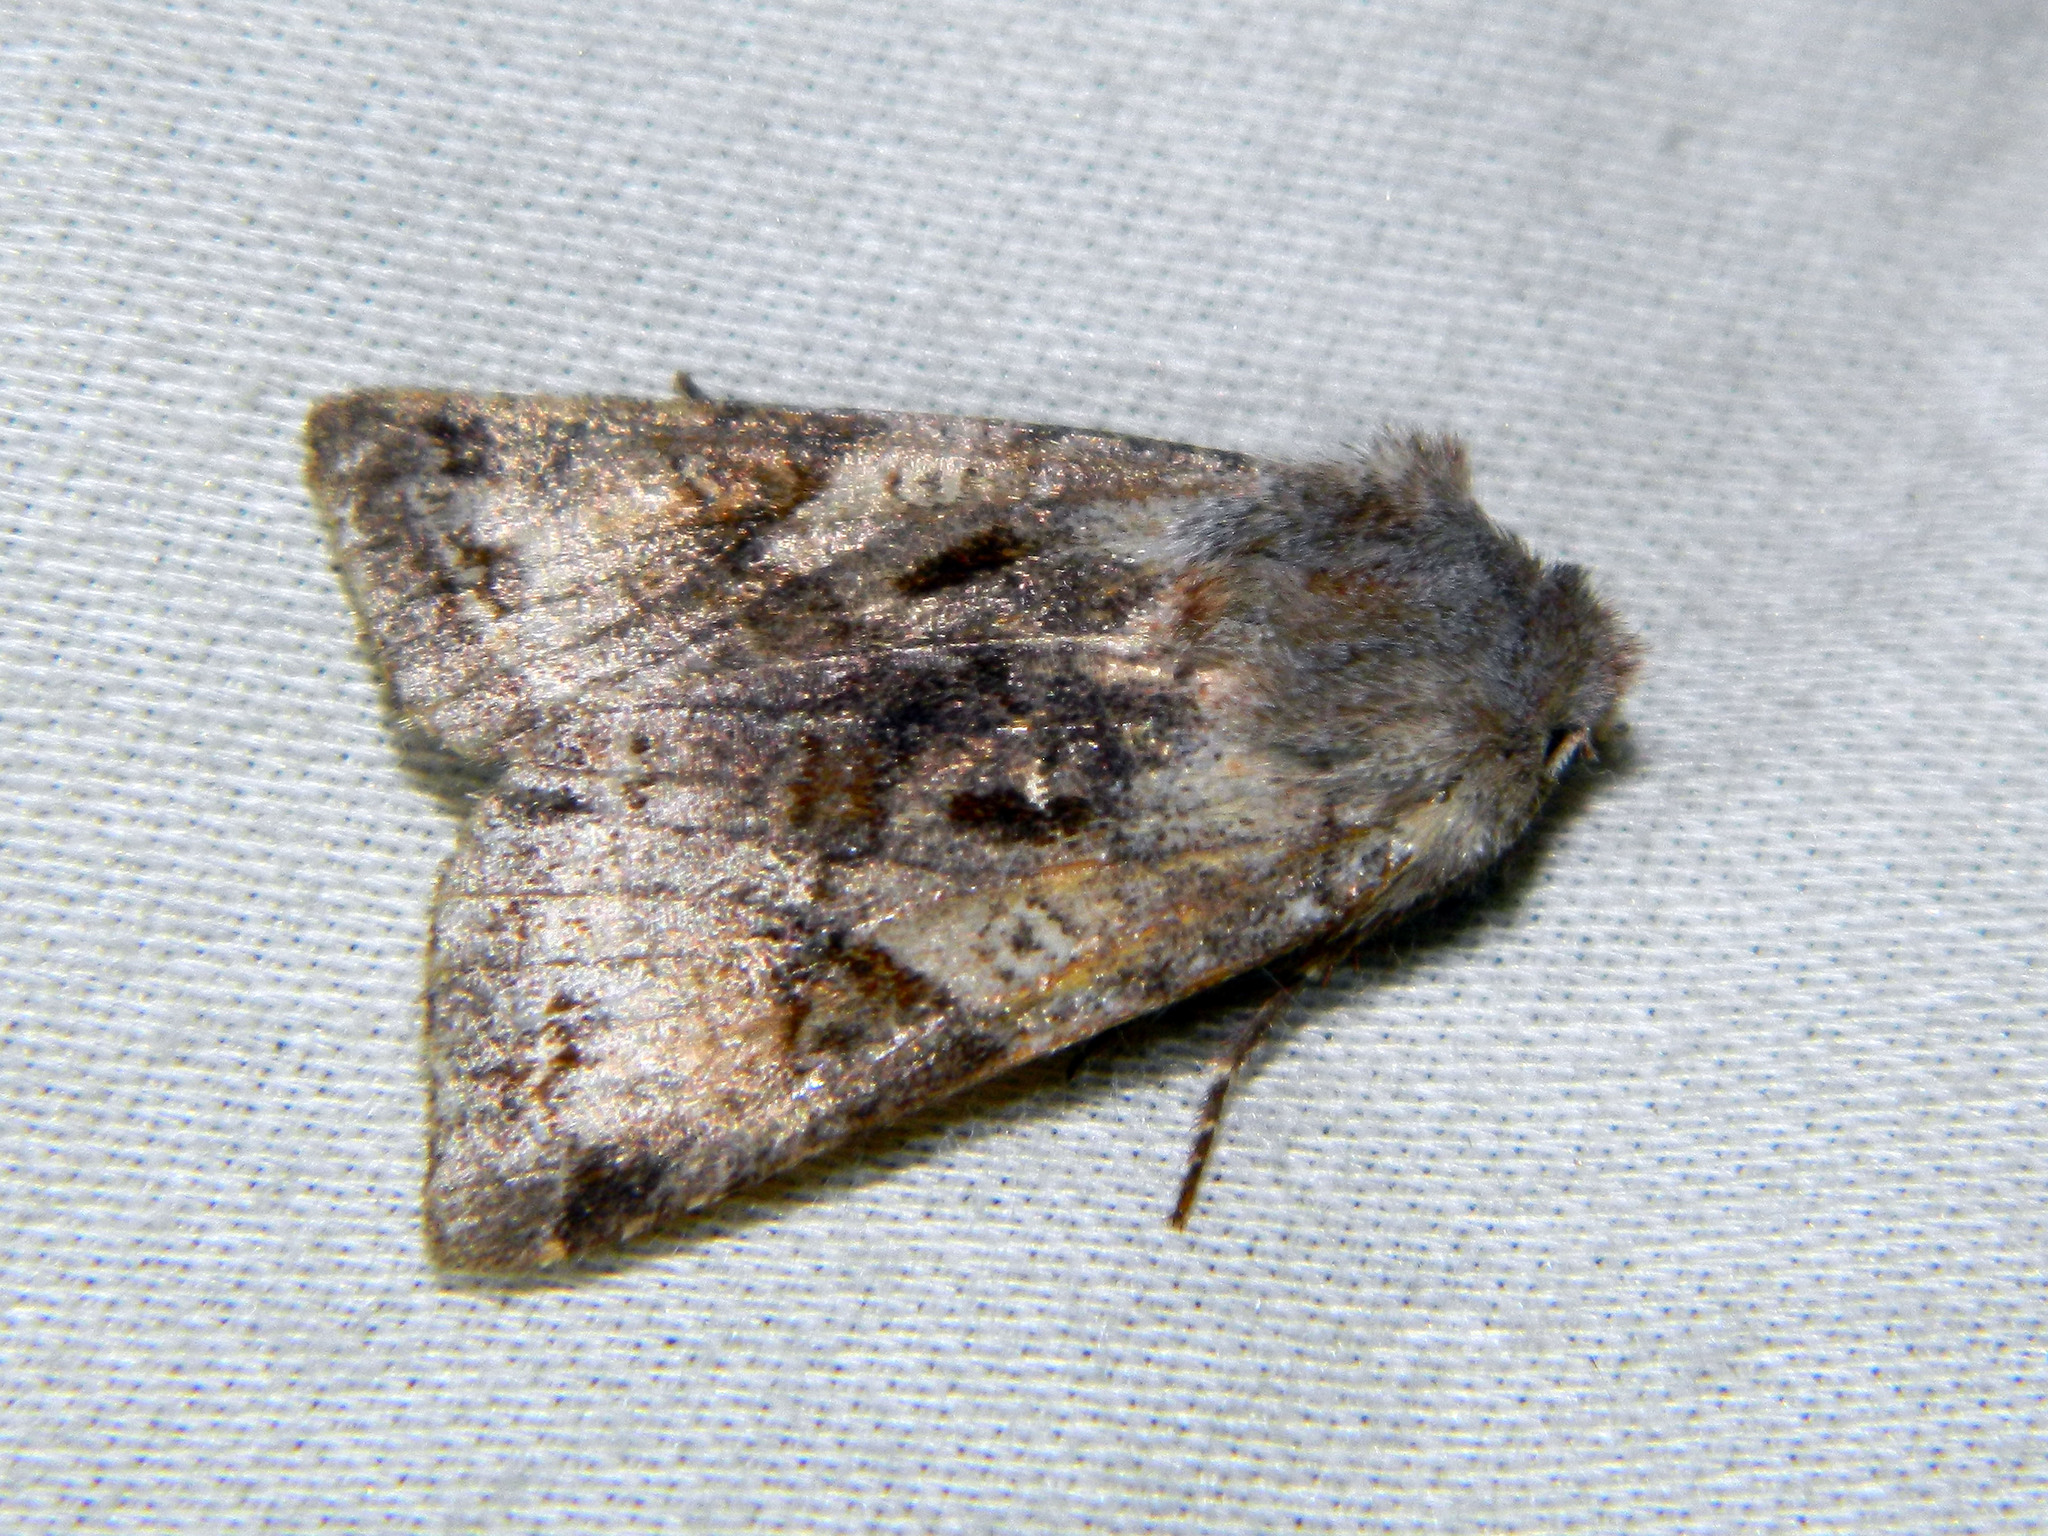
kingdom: Animalia
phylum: Arthropoda
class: Insecta
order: Lepidoptera
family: Noctuidae
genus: Cerastis
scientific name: Cerastis salicarum
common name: Willow dart
